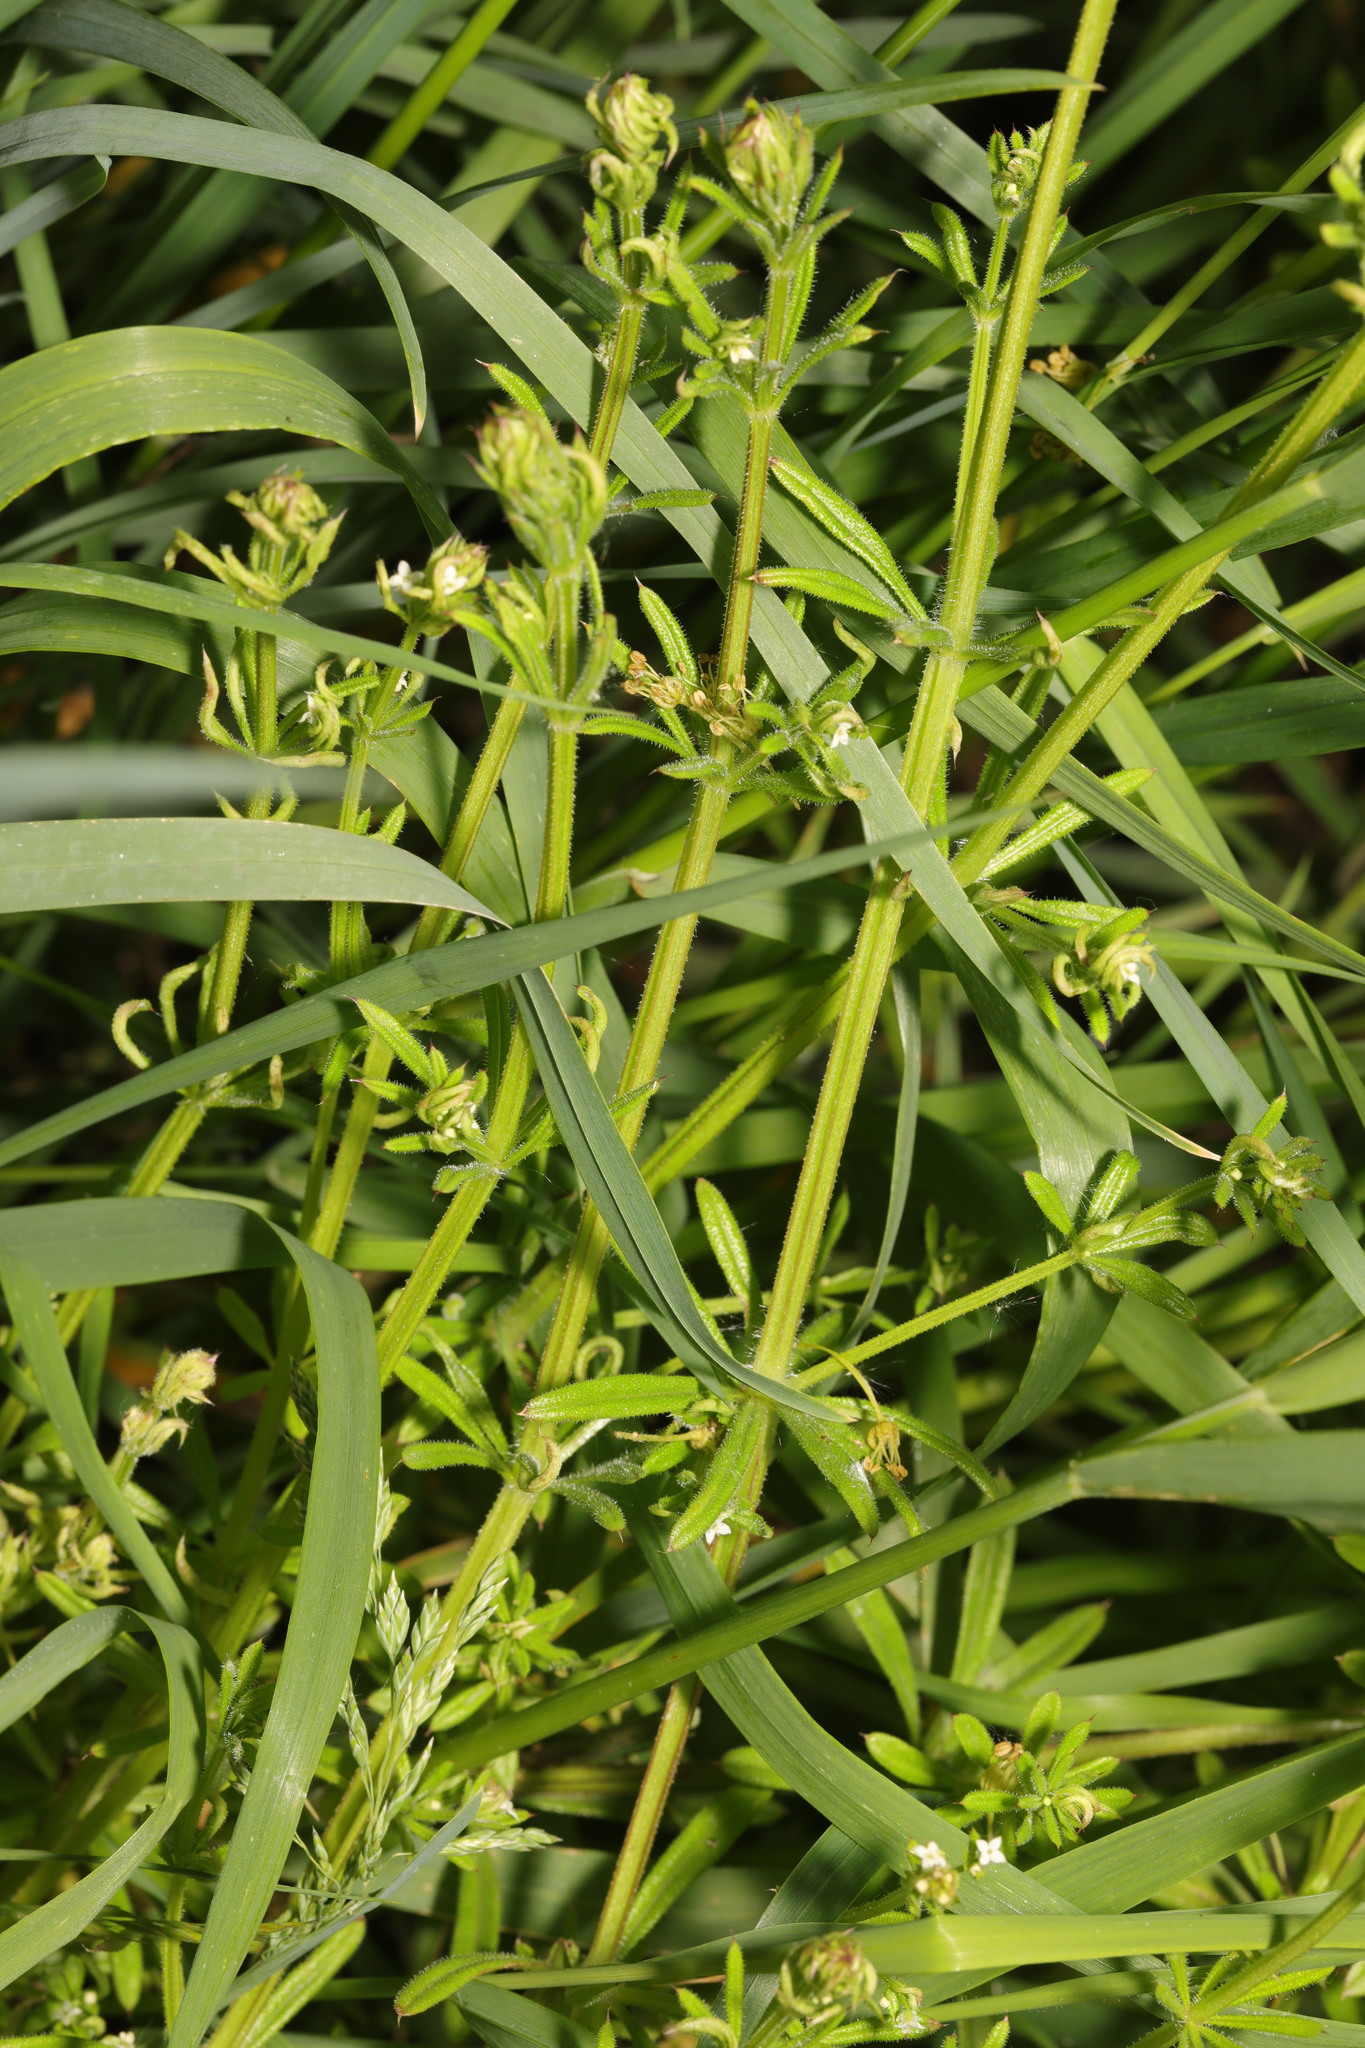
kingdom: Plantae
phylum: Tracheophyta
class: Magnoliopsida
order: Gentianales
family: Rubiaceae
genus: Galium
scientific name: Galium aparine
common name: Cleavers
